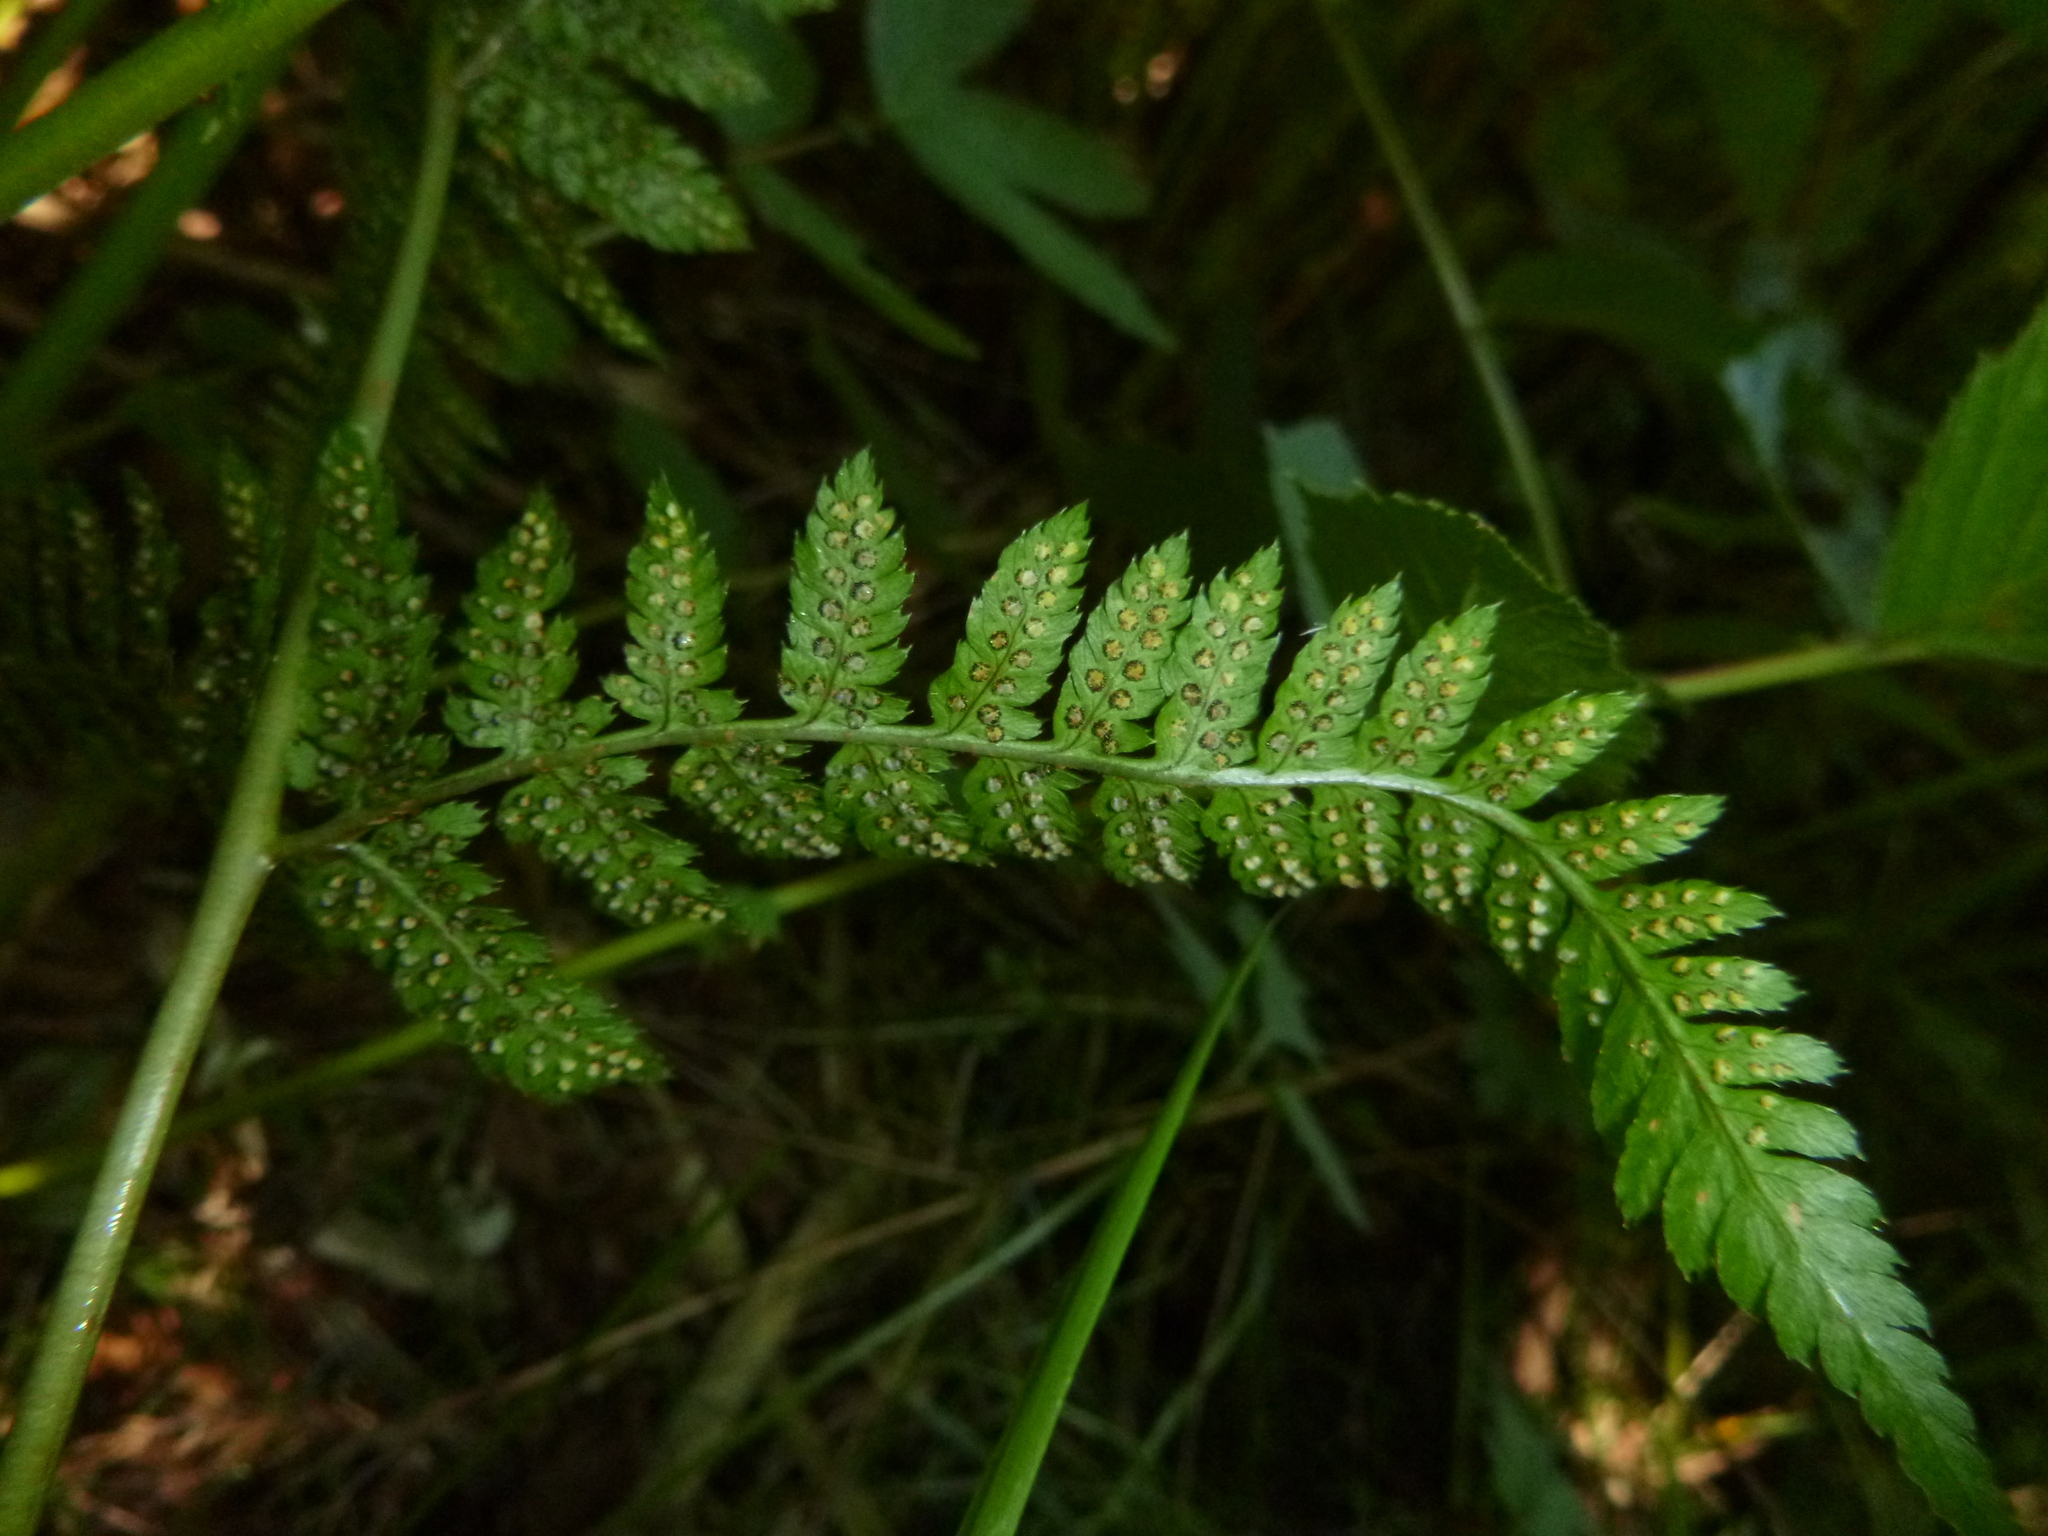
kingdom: Plantae
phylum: Tracheophyta
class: Polypodiopsida
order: Polypodiales
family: Dryopteridaceae
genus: Dryopteris
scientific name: Dryopteris carthusiana
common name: Narrow buckler-fern
